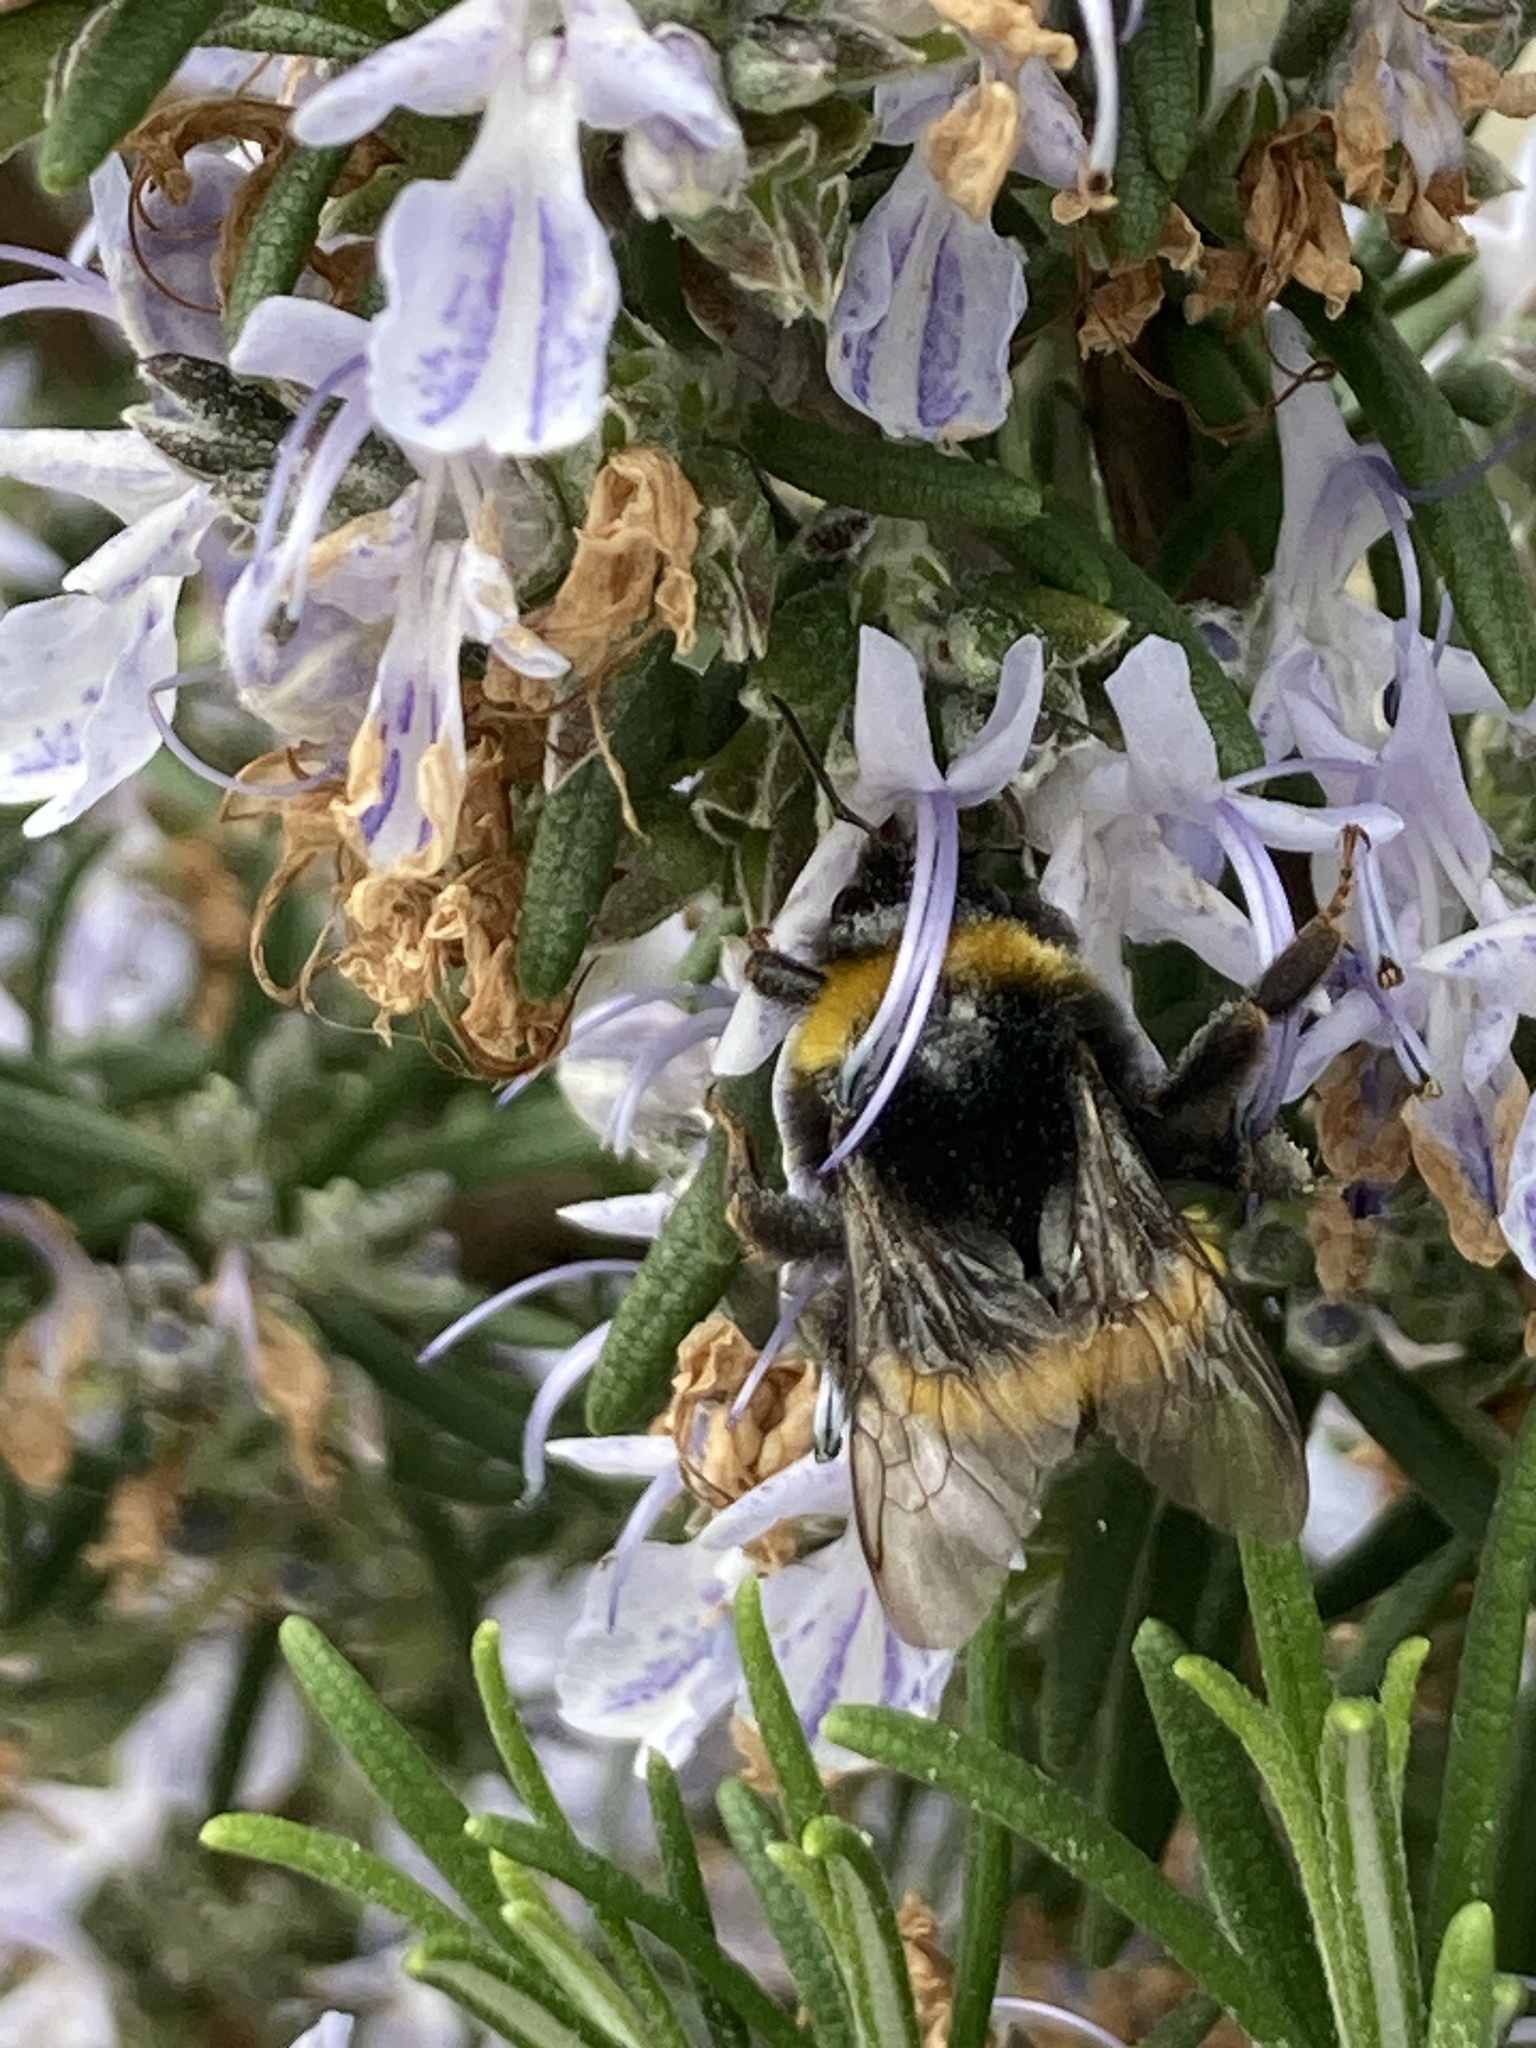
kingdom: Animalia
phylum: Arthropoda
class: Insecta
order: Hymenoptera
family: Apidae
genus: Bombus
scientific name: Bombus terrestris
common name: Buff-tailed bumblebee
